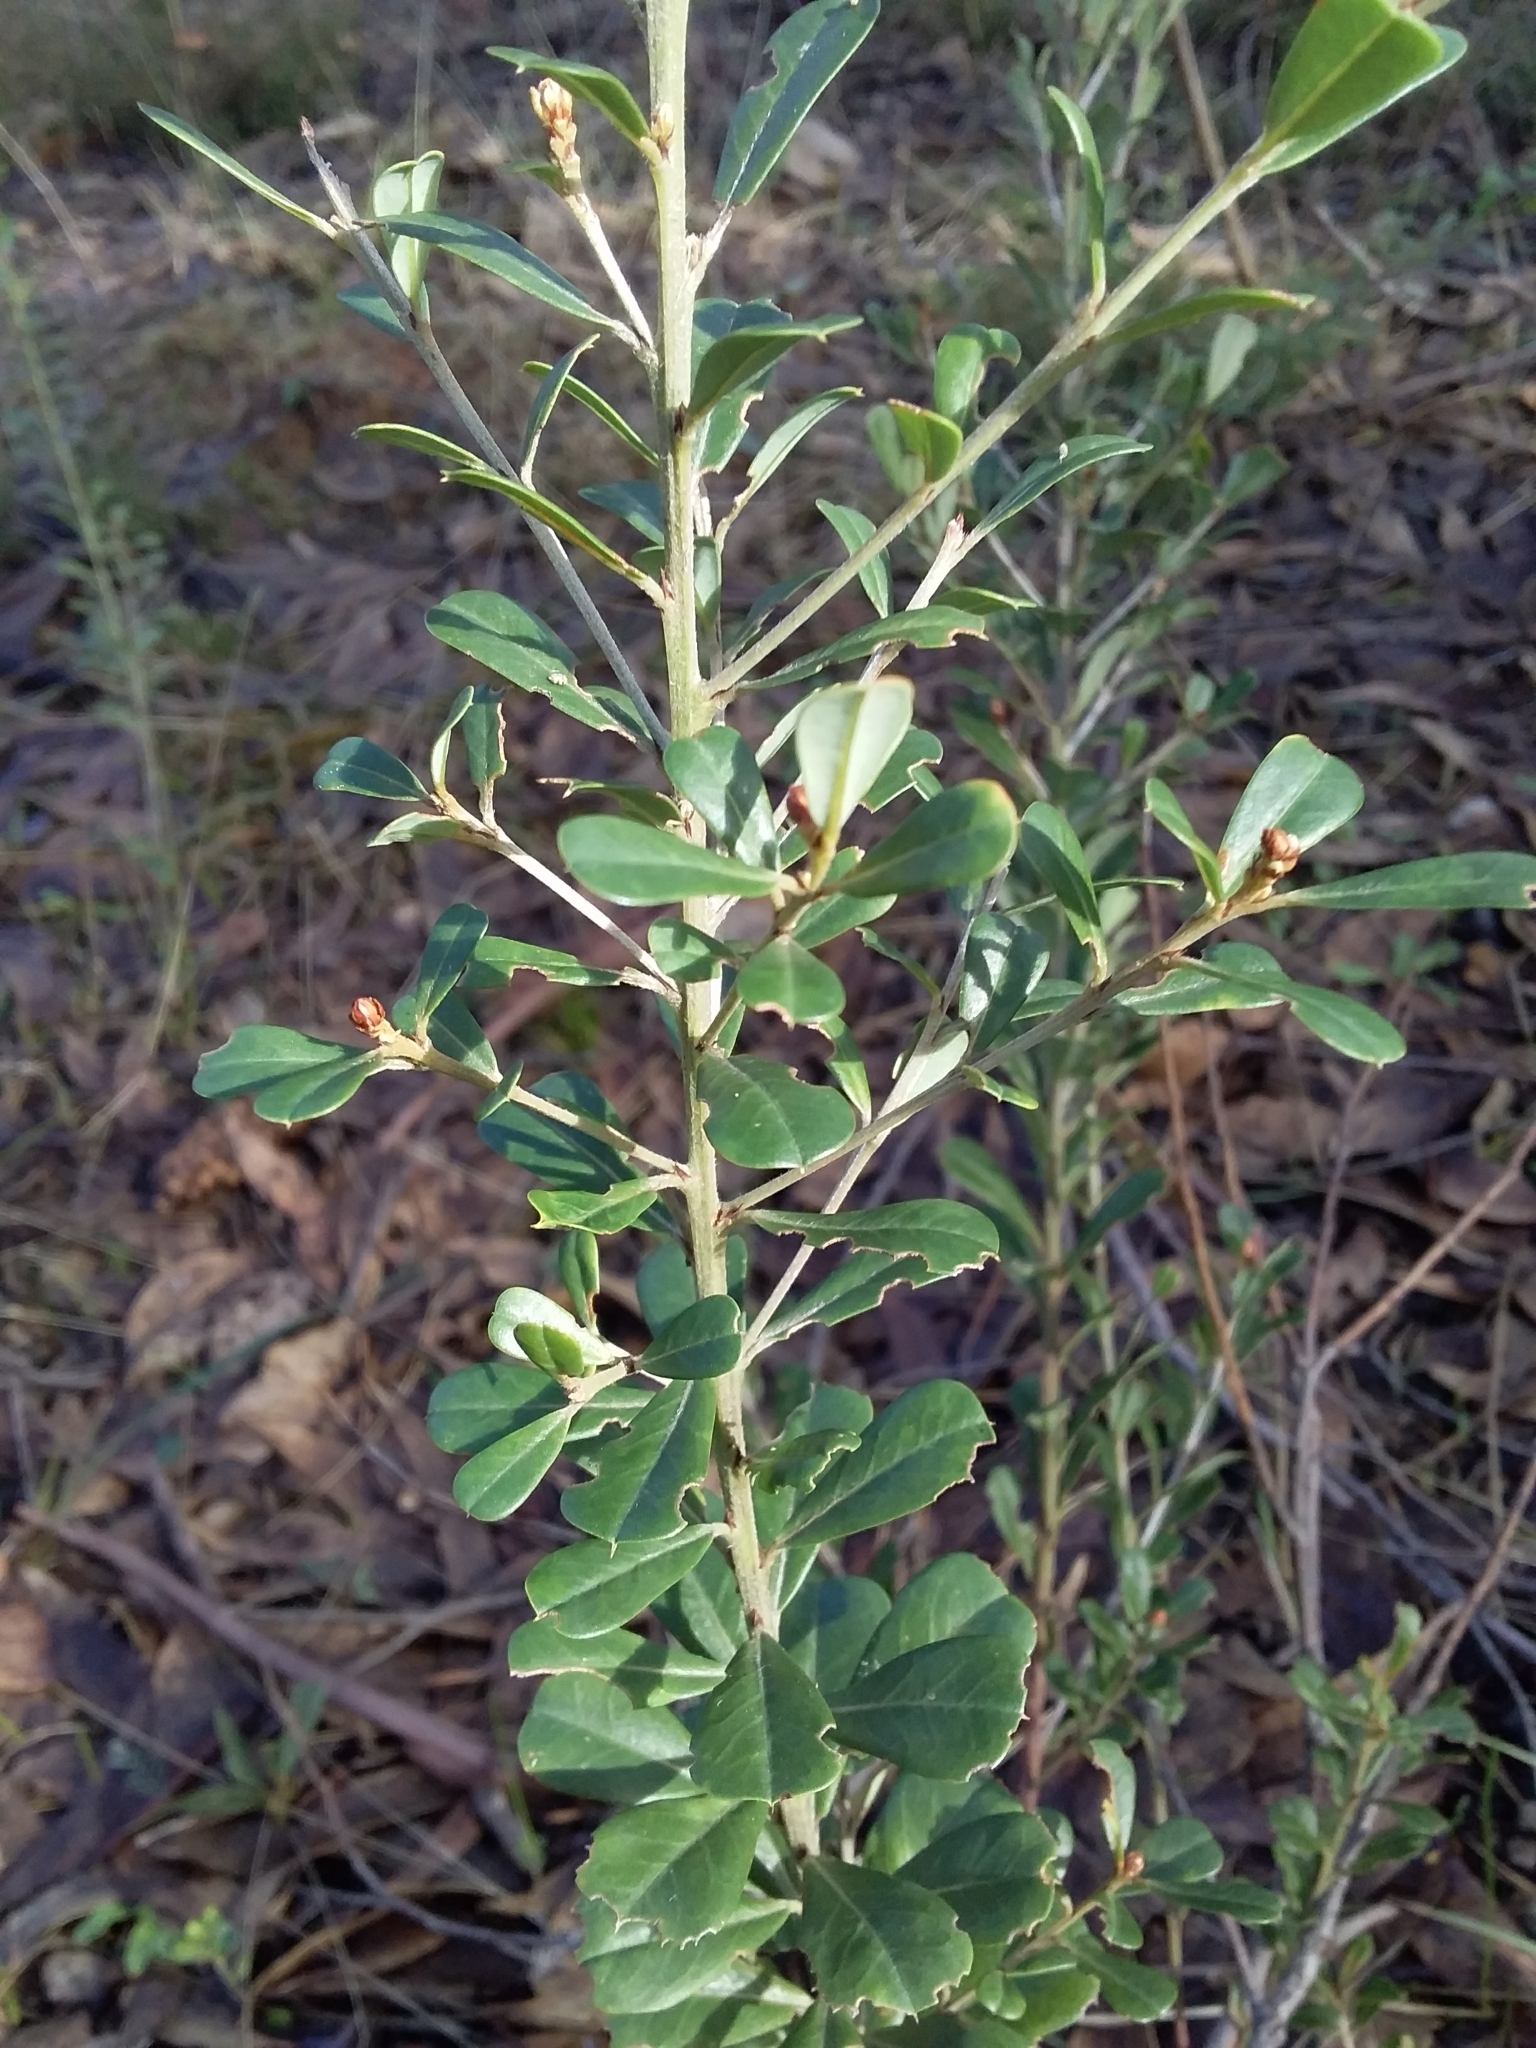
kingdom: Plantae
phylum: Tracheophyta
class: Magnoliopsida
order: Fabales
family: Fabaceae
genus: Pultenaea
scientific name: Pultenaea daphnoides
